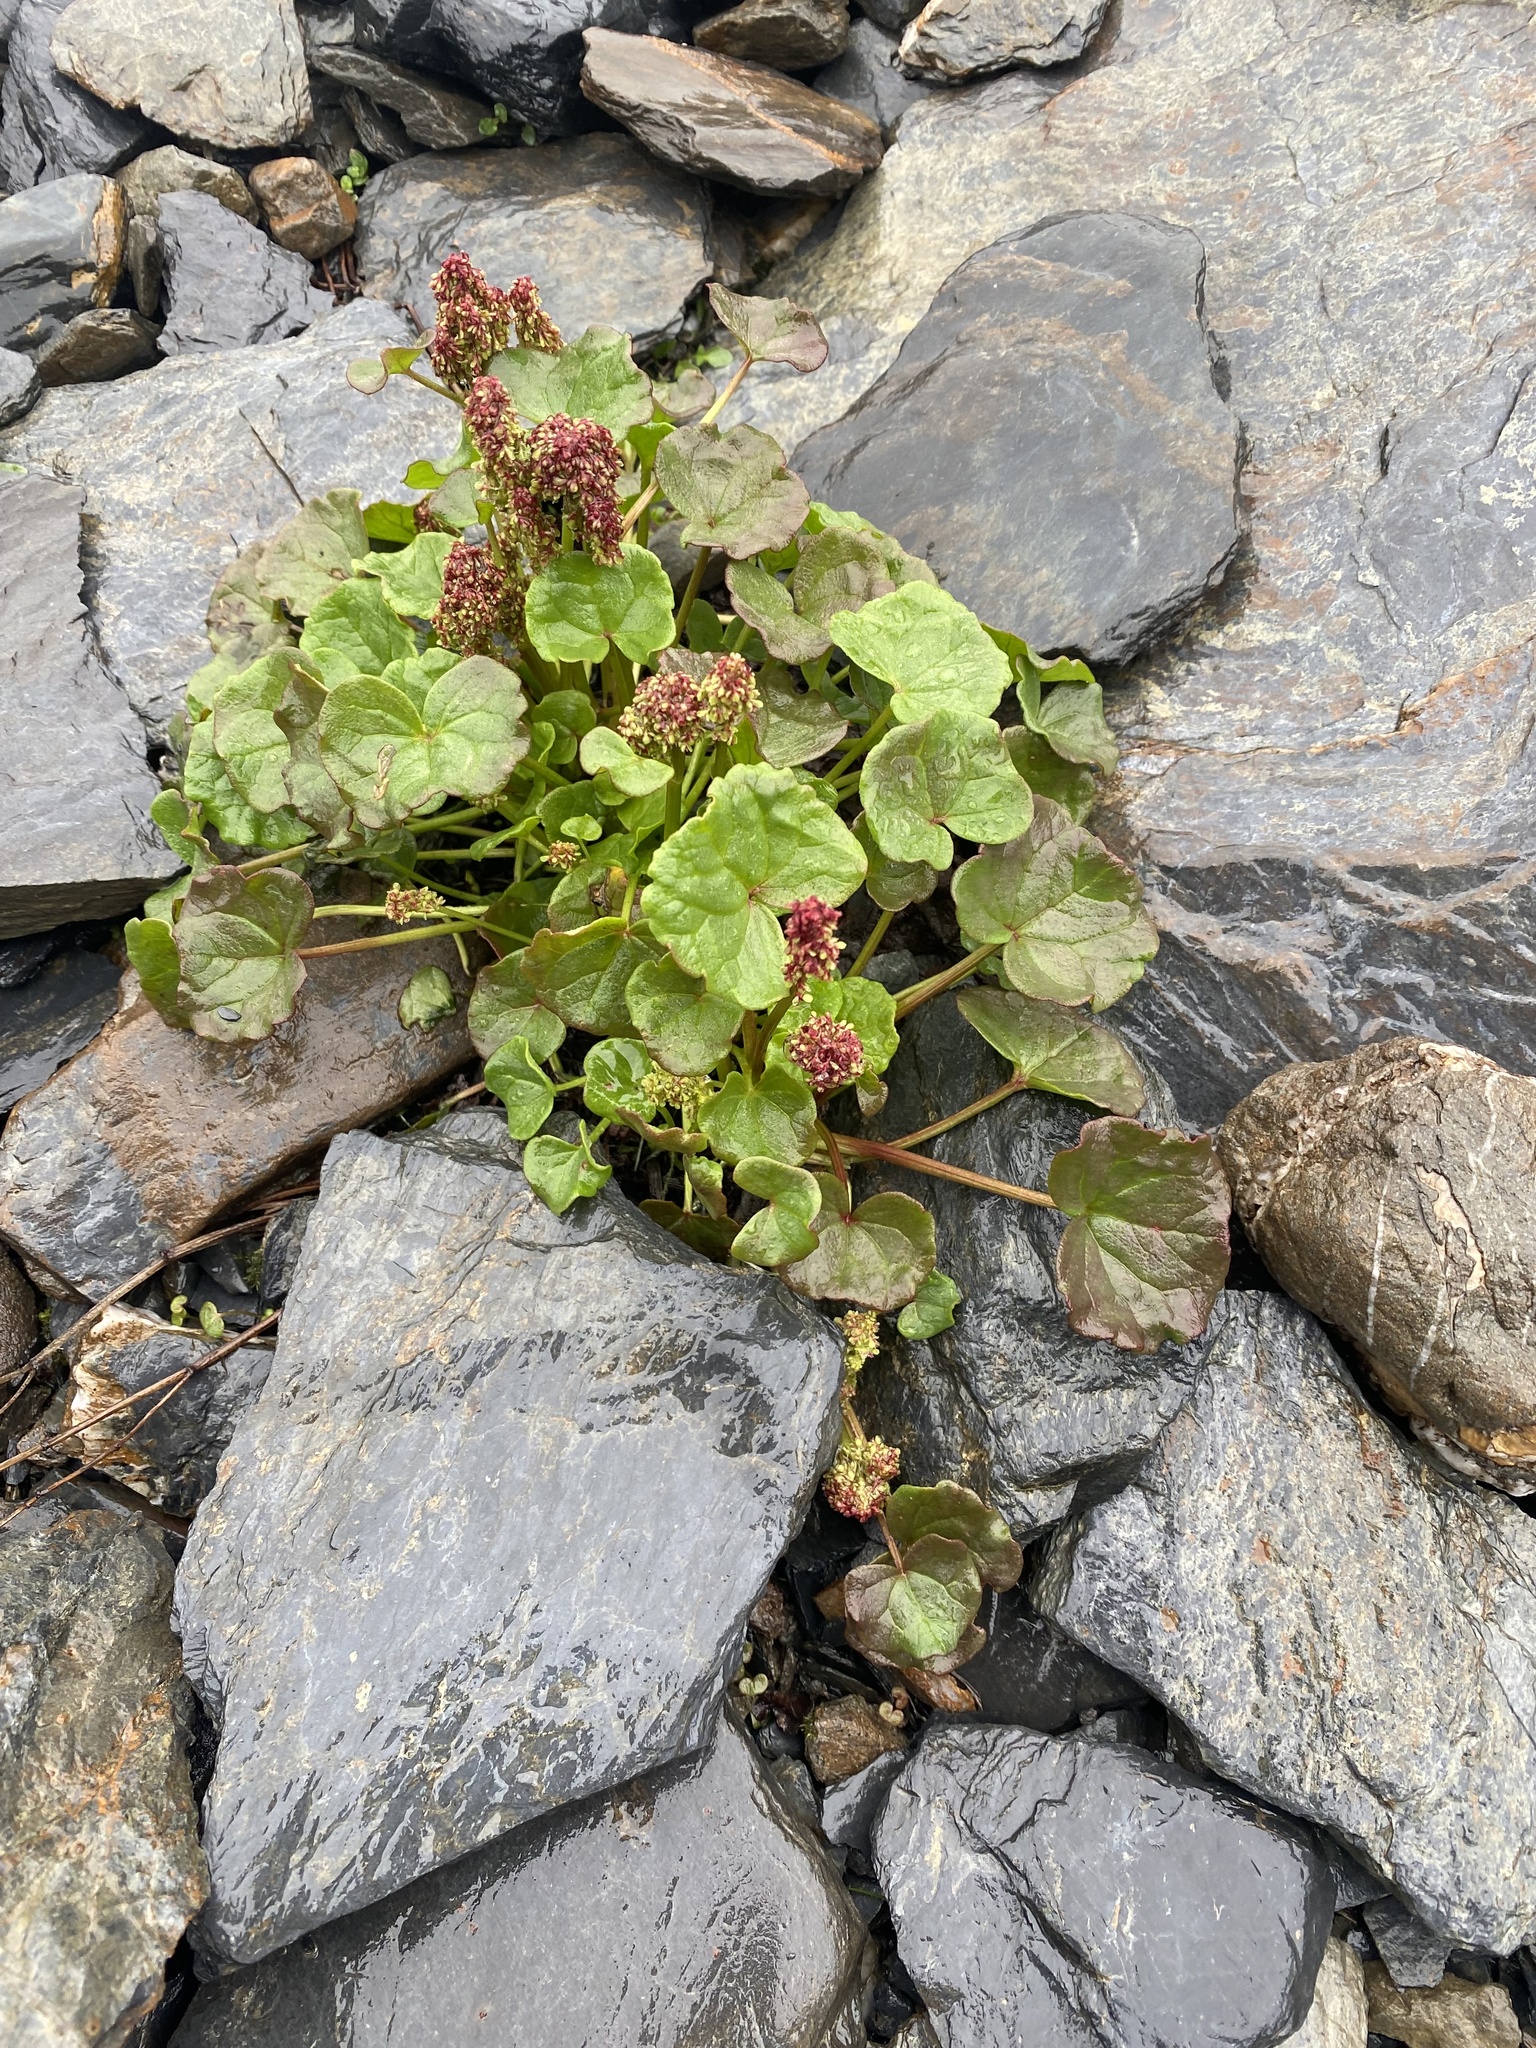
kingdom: Plantae
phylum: Tracheophyta
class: Magnoliopsida
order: Caryophyllales
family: Polygonaceae
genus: Oxyria
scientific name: Oxyria digyna
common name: Alpine mountain-sorrel
